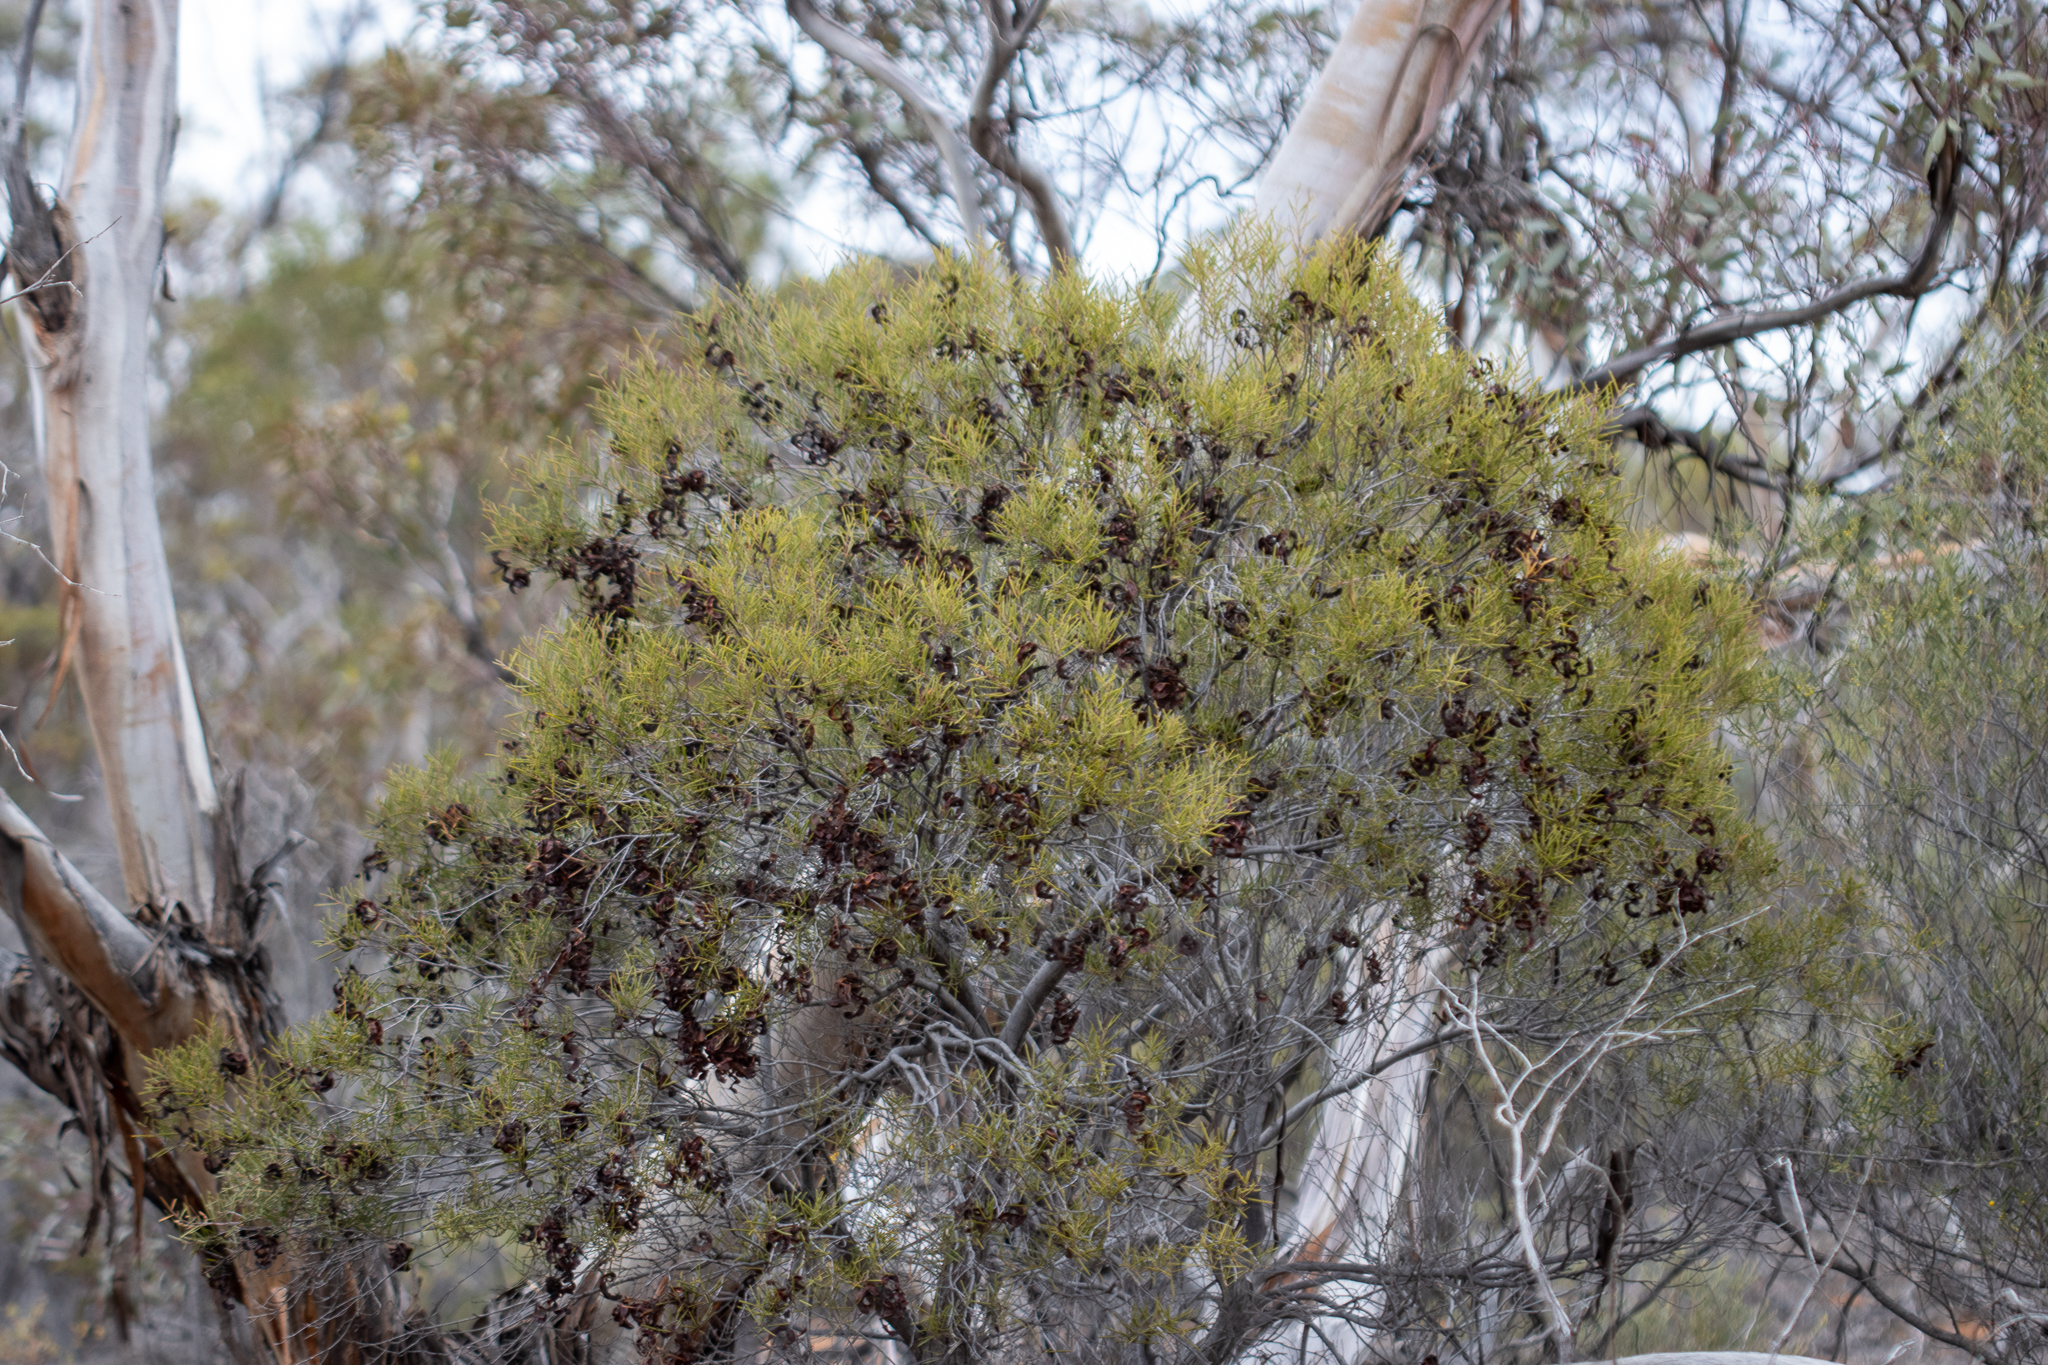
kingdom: Plantae
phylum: Tracheophyta
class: Magnoliopsida
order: Fabales
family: Fabaceae
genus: Acacia
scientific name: Acacia oswaldii
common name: Umbrella wattle
